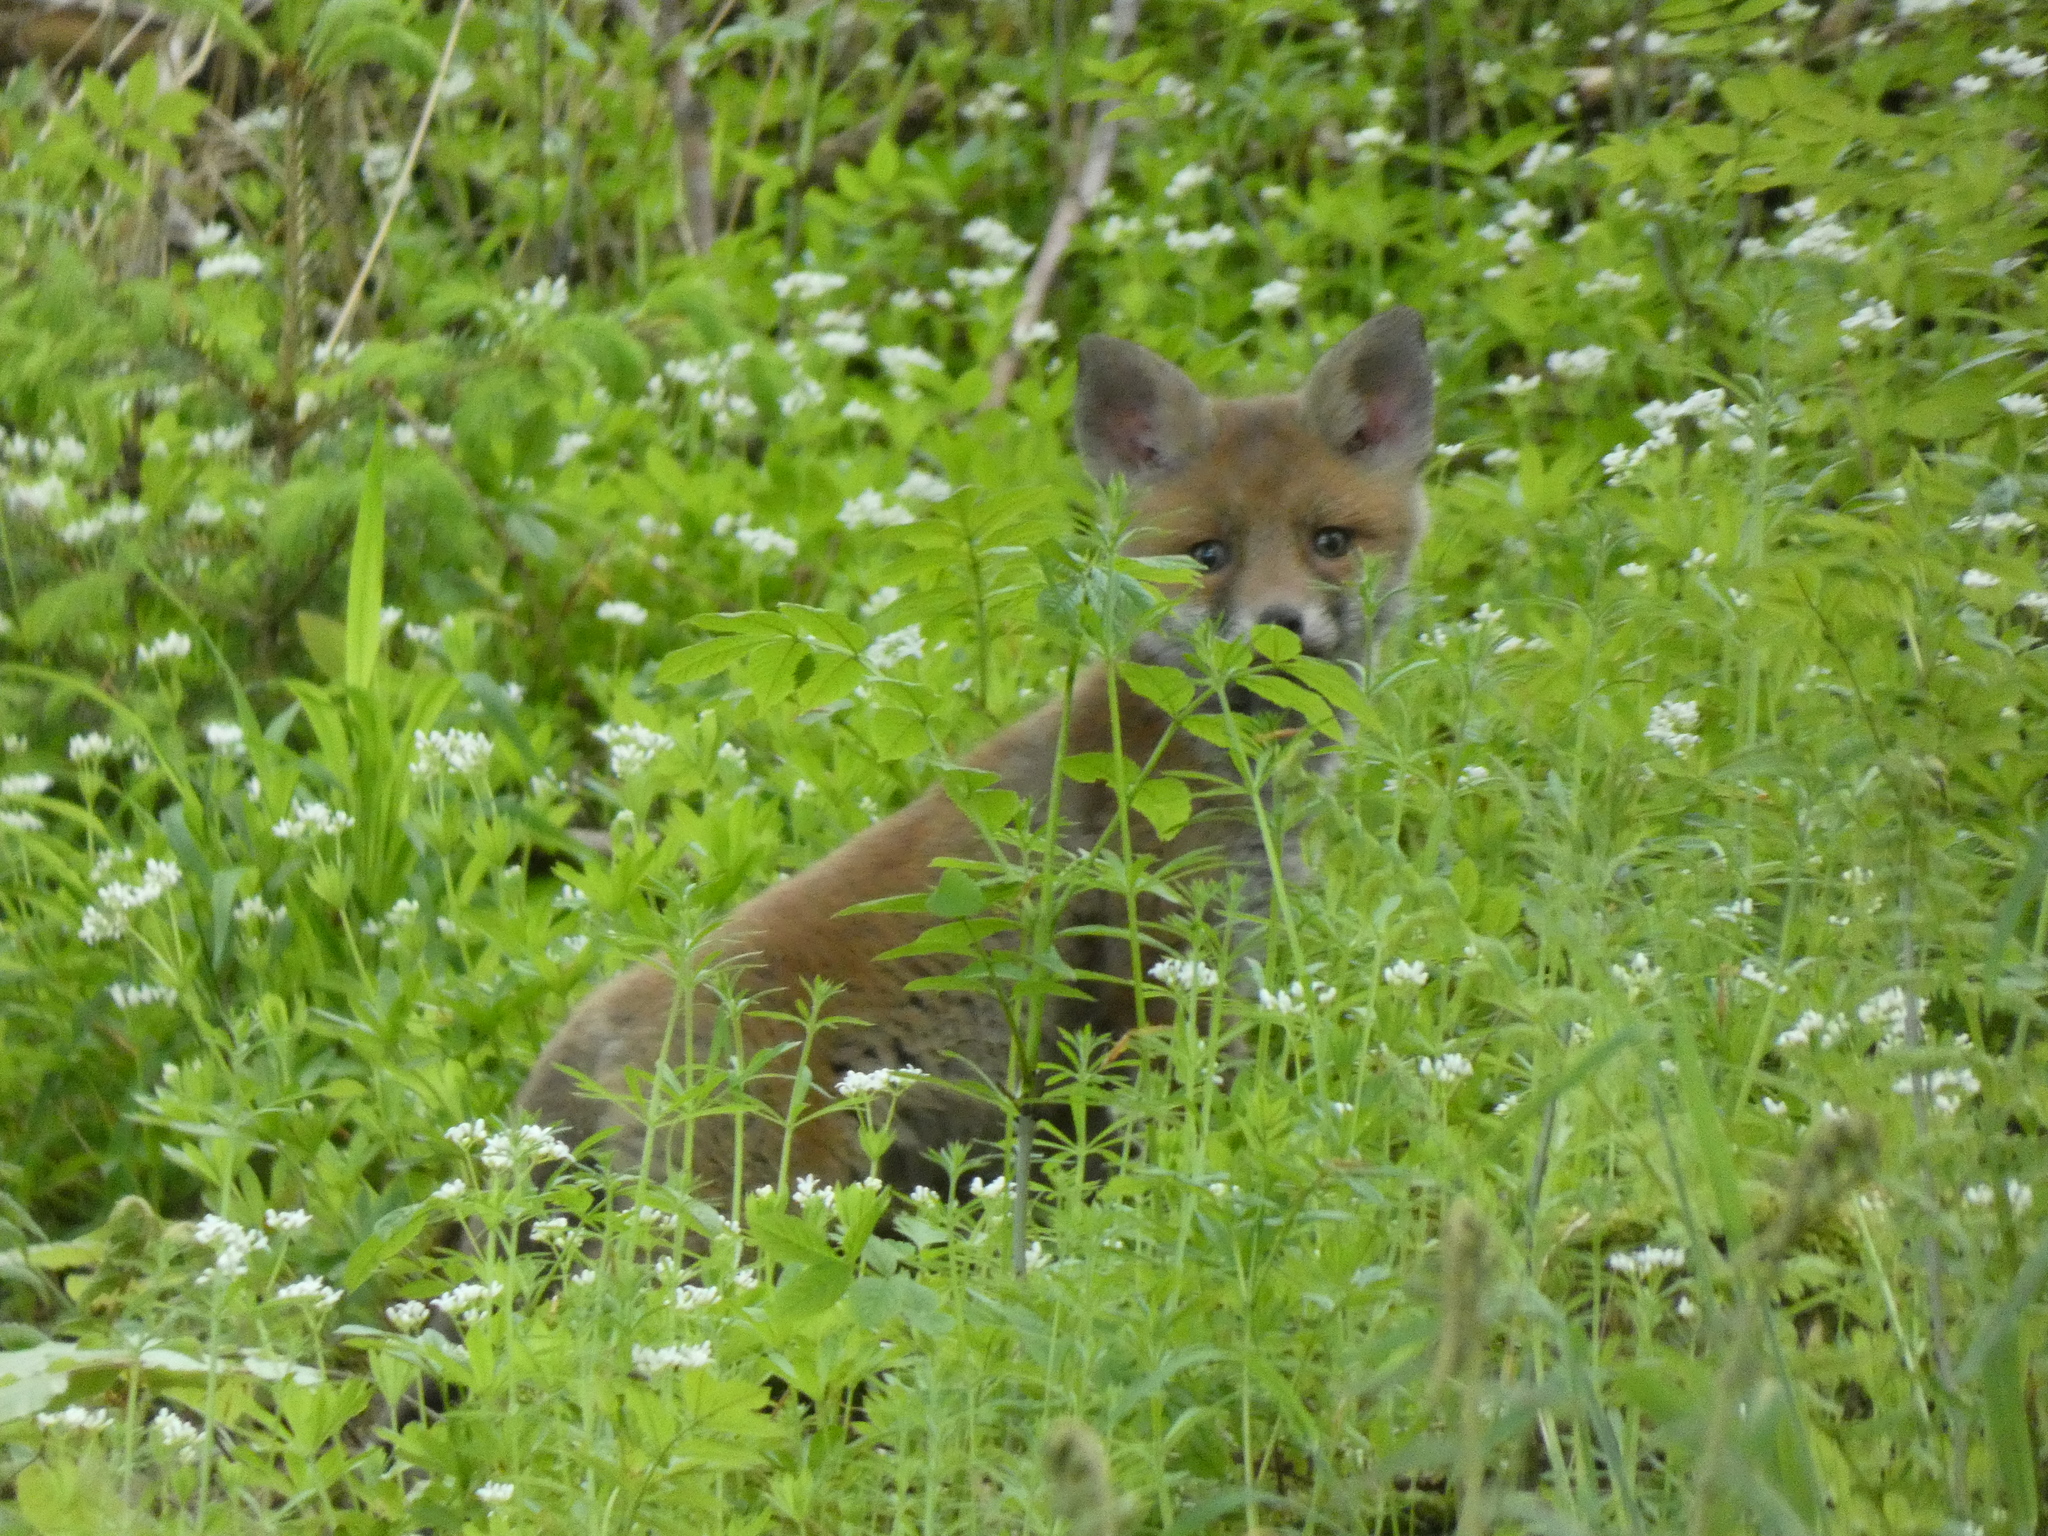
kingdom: Animalia
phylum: Chordata
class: Mammalia
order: Carnivora
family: Canidae
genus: Vulpes
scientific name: Vulpes vulpes
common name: Red fox
